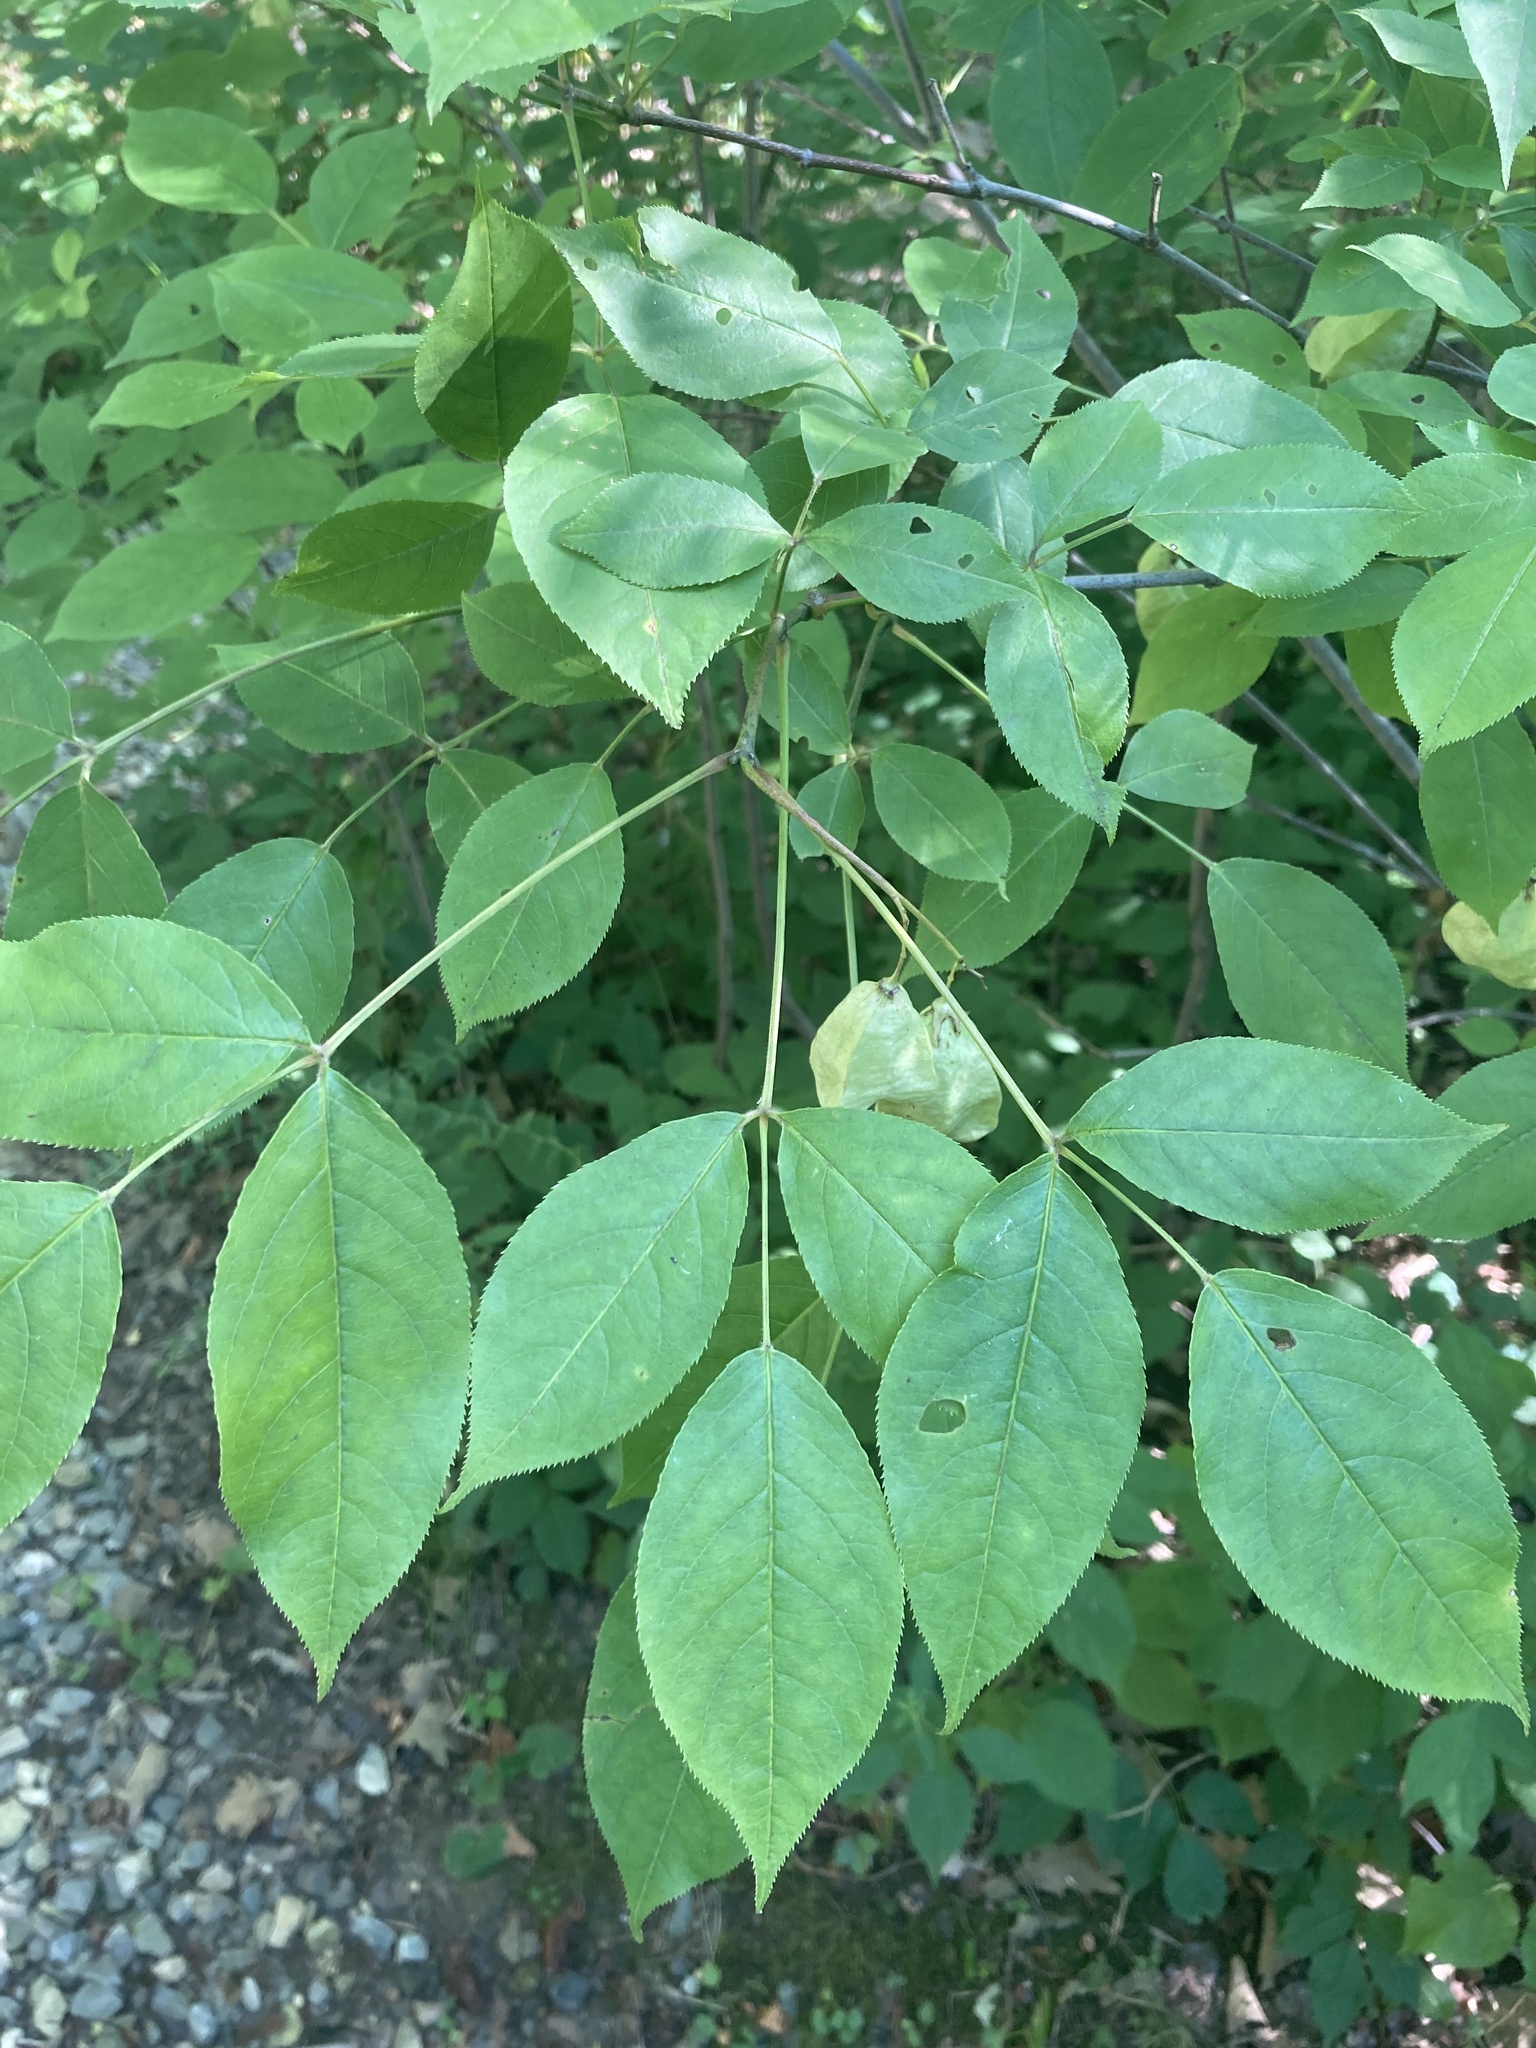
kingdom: Plantae
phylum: Tracheophyta
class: Magnoliopsida
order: Crossosomatales
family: Staphyleaceae
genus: Staphylea
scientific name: Staphylea trifolia
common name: American bladdernut
